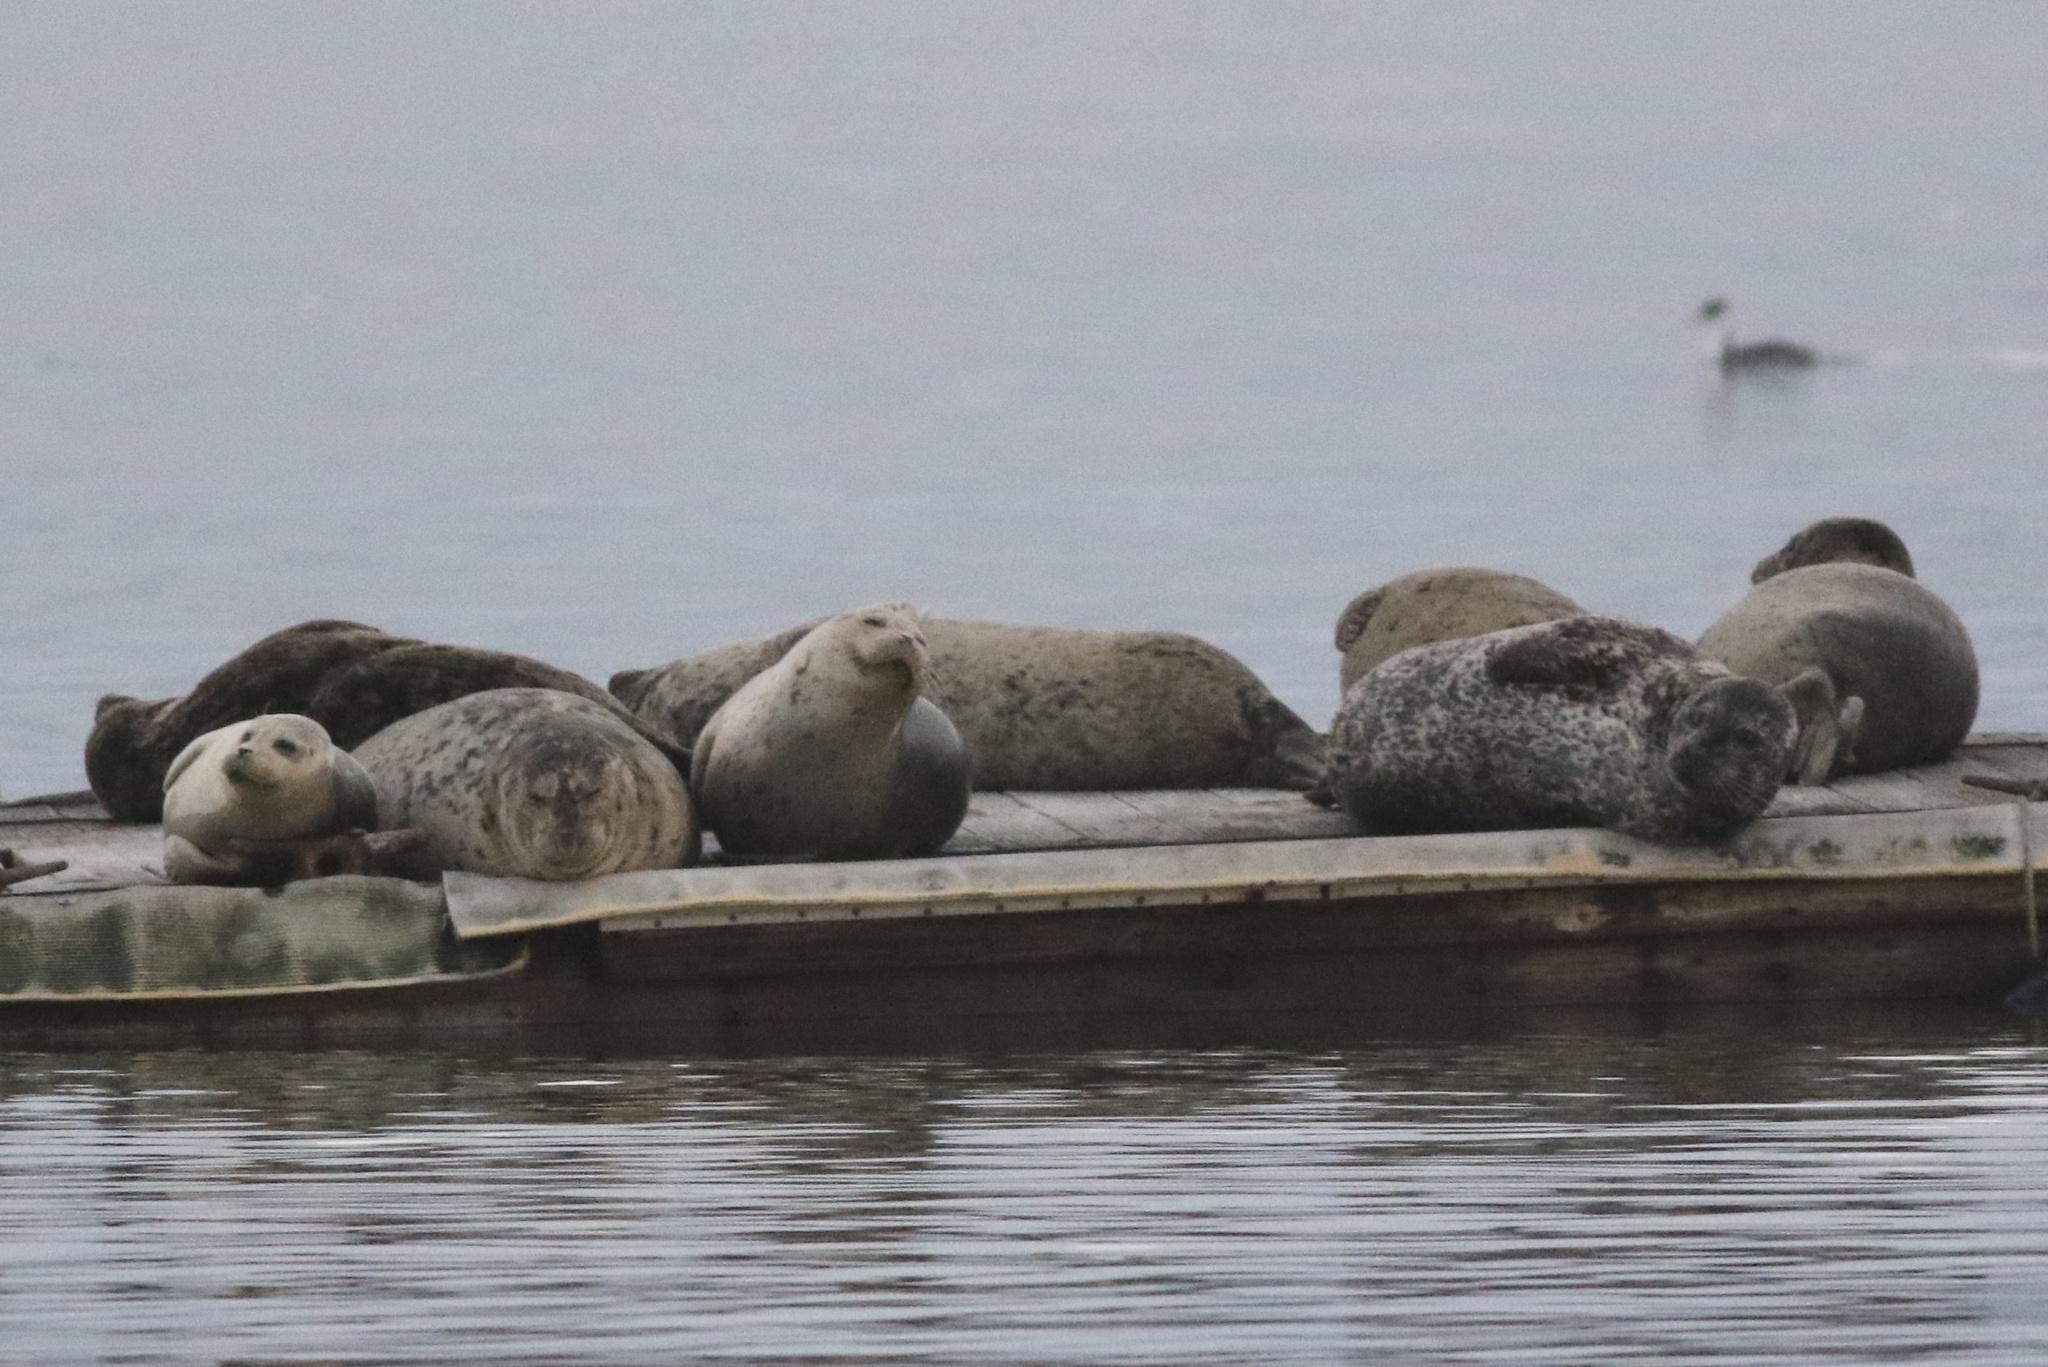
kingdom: Animalia
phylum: Chordata
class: Mammalia
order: Carnivora
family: Phocidae
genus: Phoca
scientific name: Phoca vitulina
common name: Harbor seal
